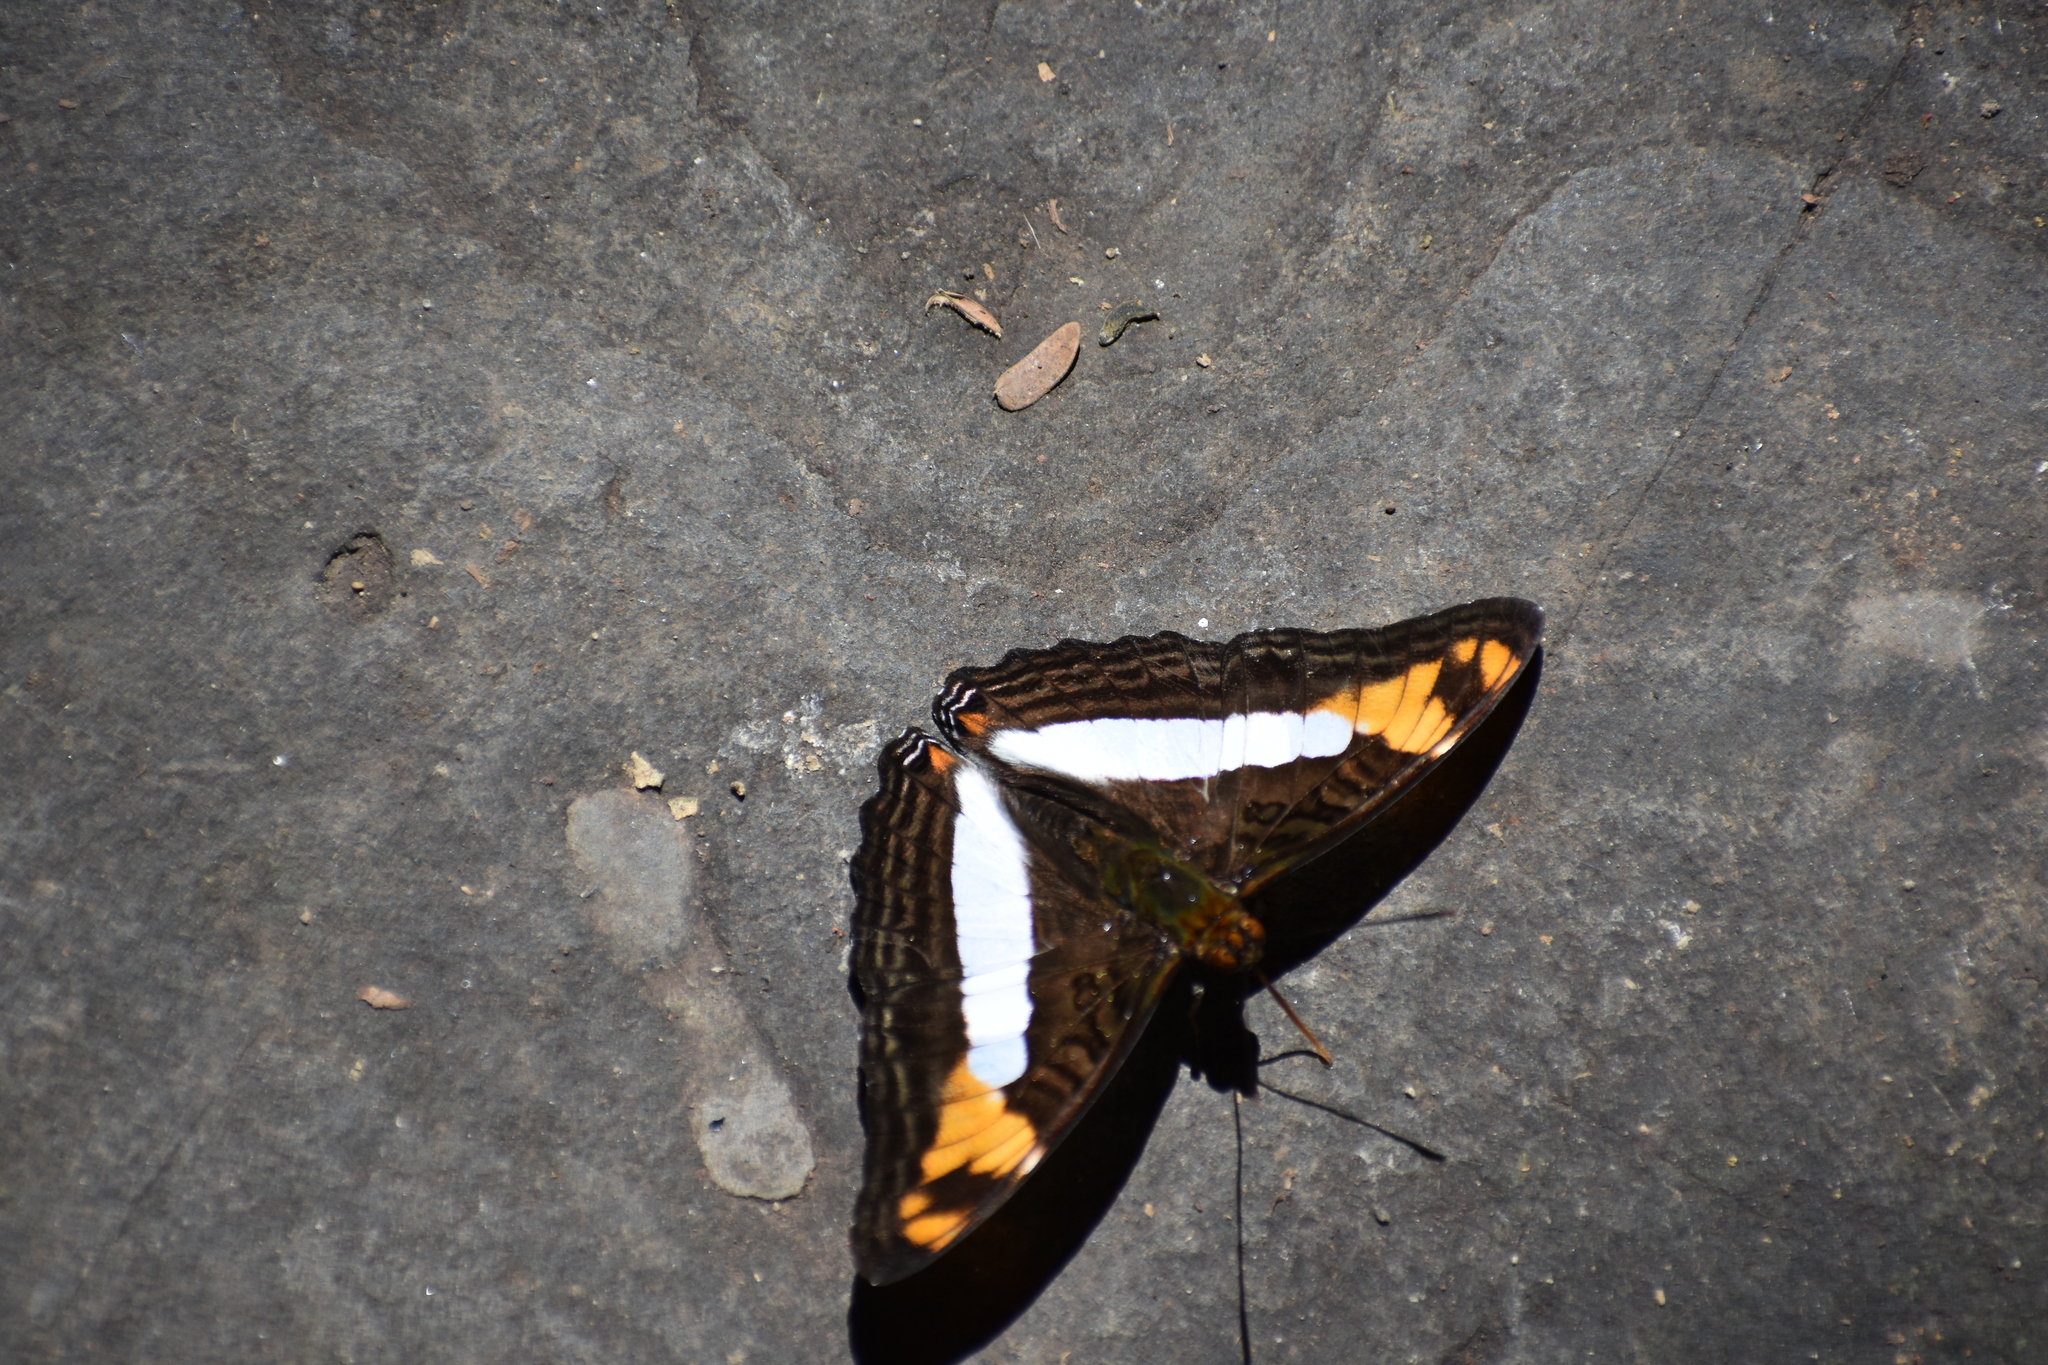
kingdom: Animalia
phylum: Arthropoda
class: Insecta
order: Lepidoptera
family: Nymphalidae
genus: Limenitis
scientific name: Limenitis phylaca
